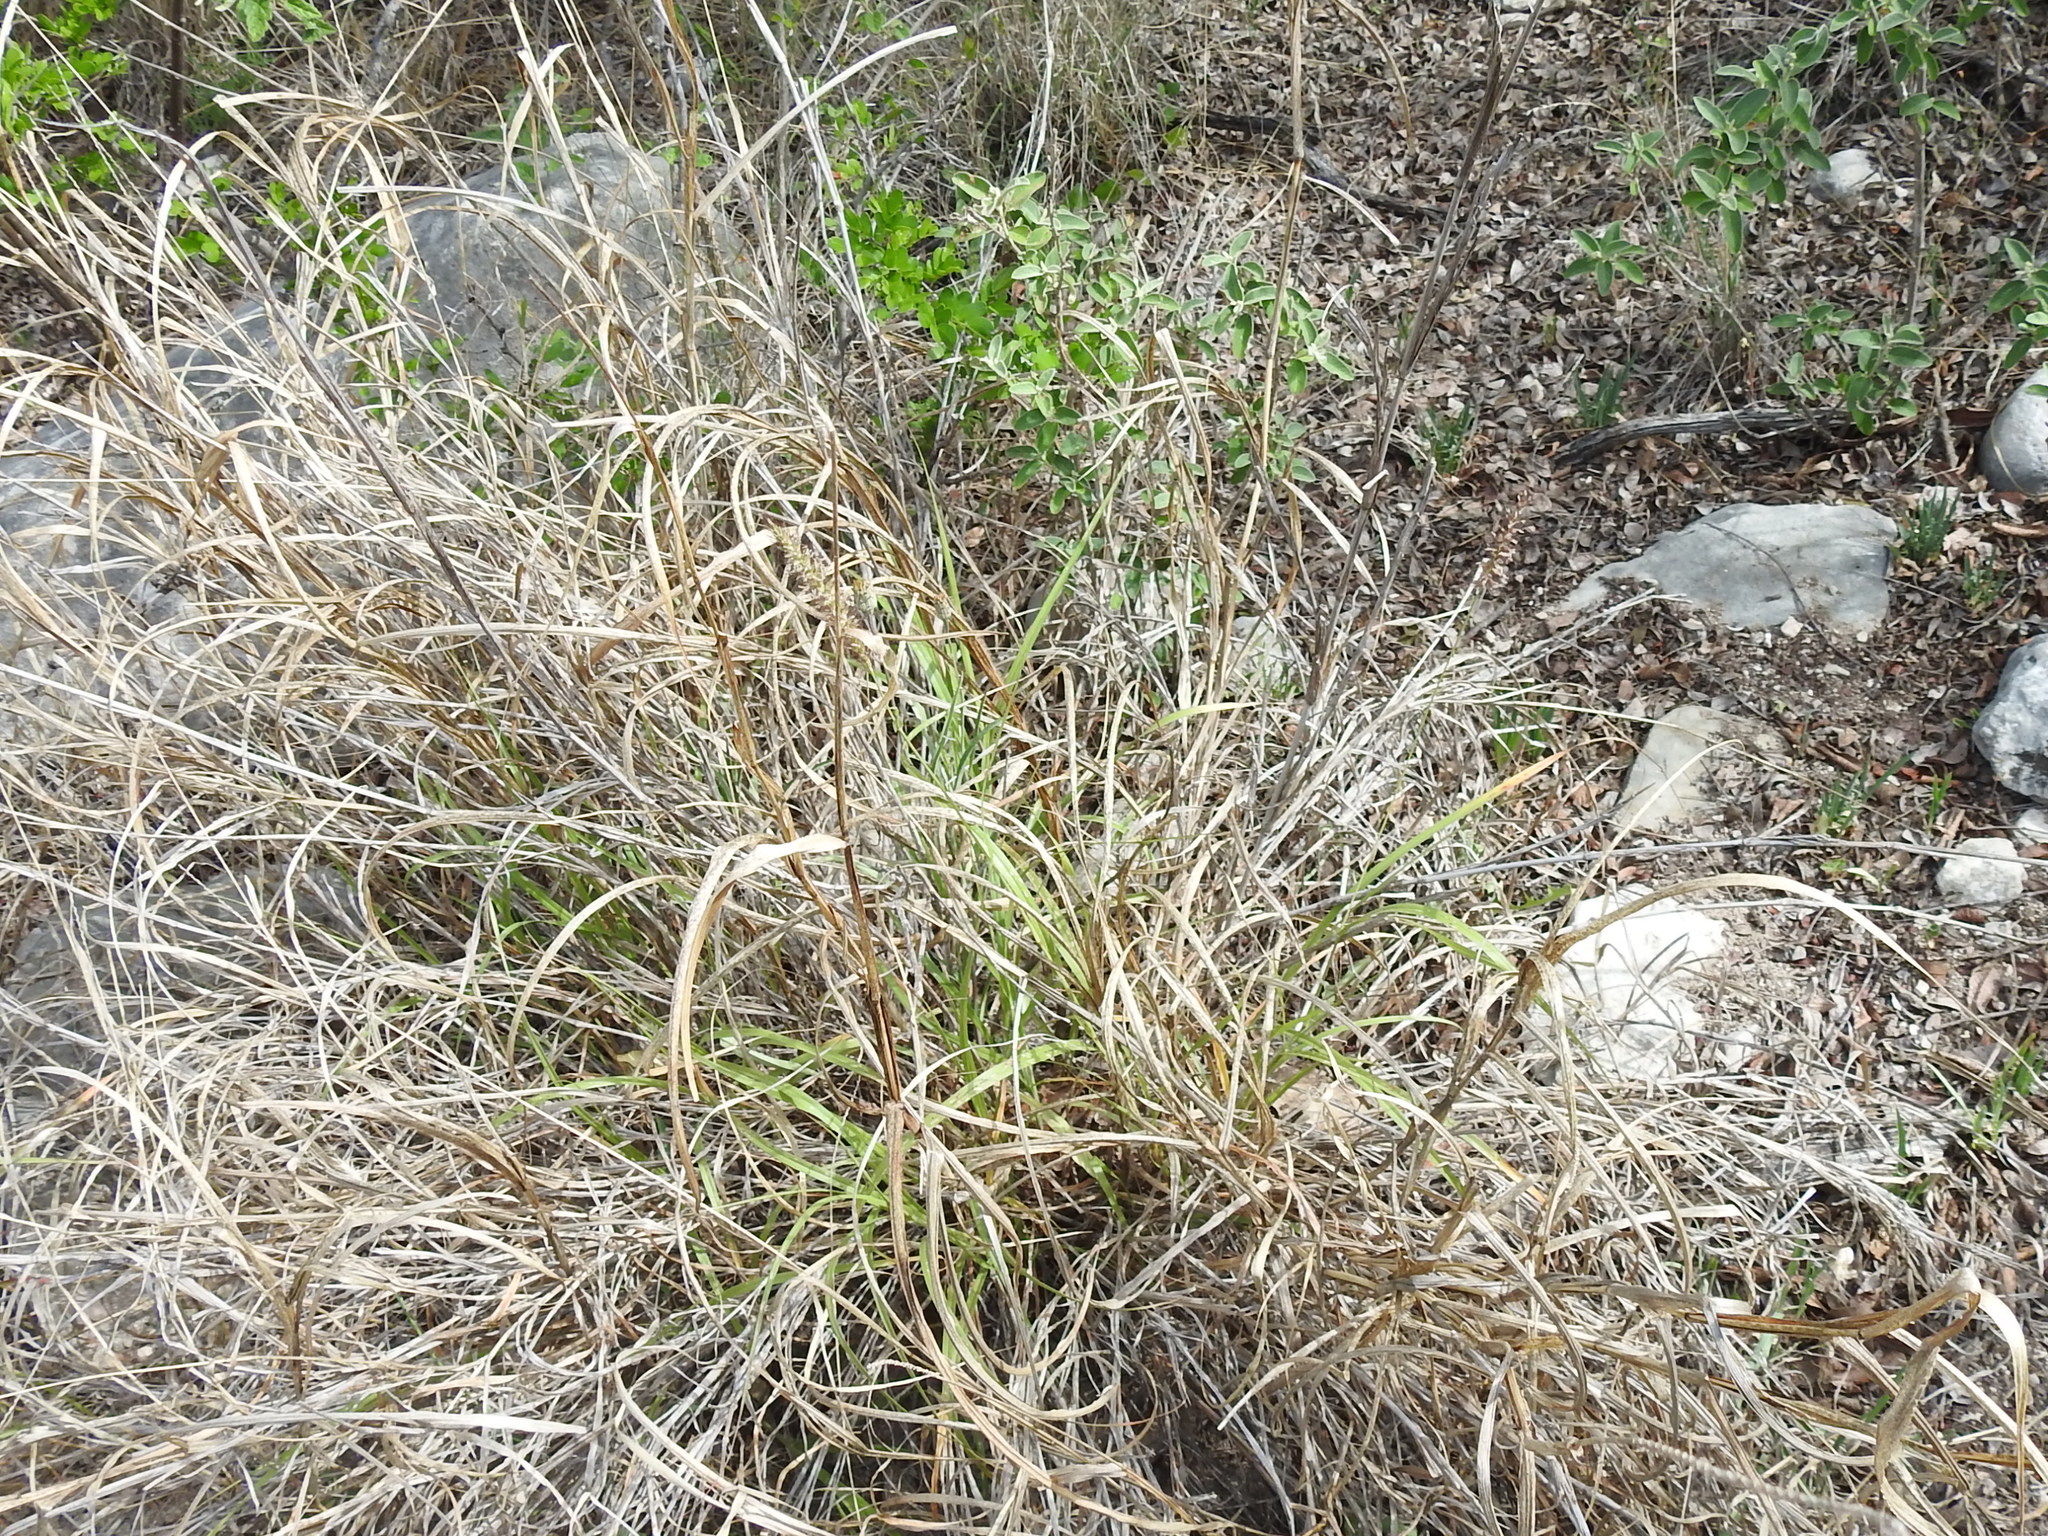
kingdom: Plantae
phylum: Tracheophyta
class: Liliopsida
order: Poales
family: Poaceae
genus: Cenchrus
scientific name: Cenchrus ciliaris
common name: Buffelgrass
